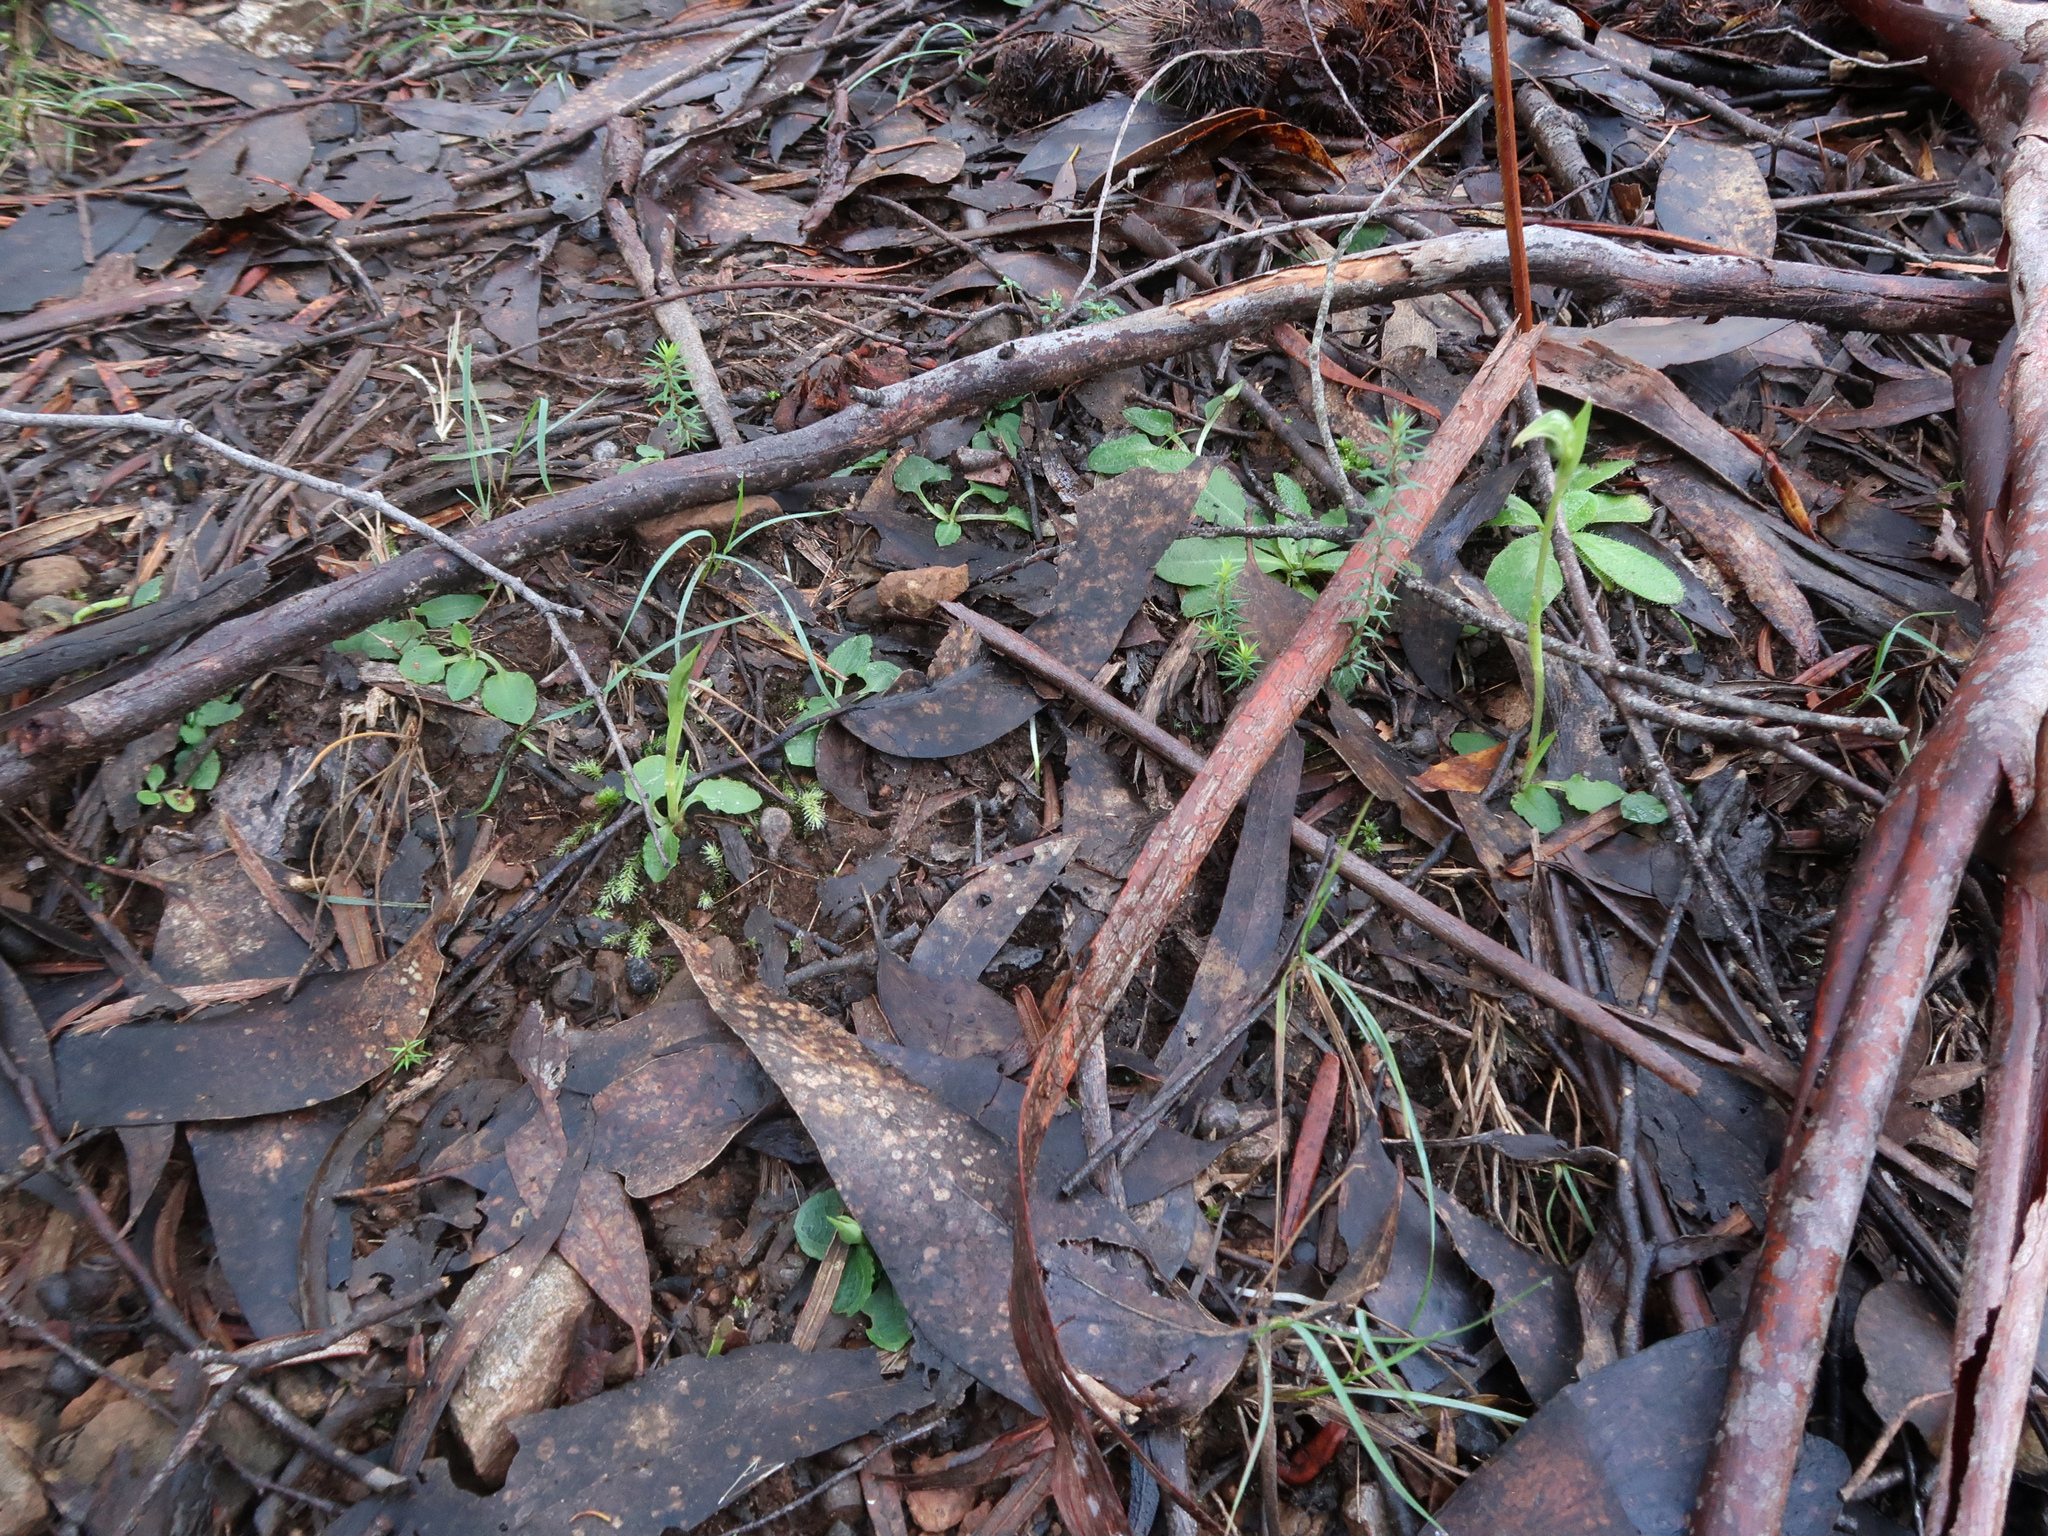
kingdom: Plantae
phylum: Tracheophyta
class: Liliopsida
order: Asparagales
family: Orchidaceae
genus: Pterostylis
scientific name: Pterostylis nutans
